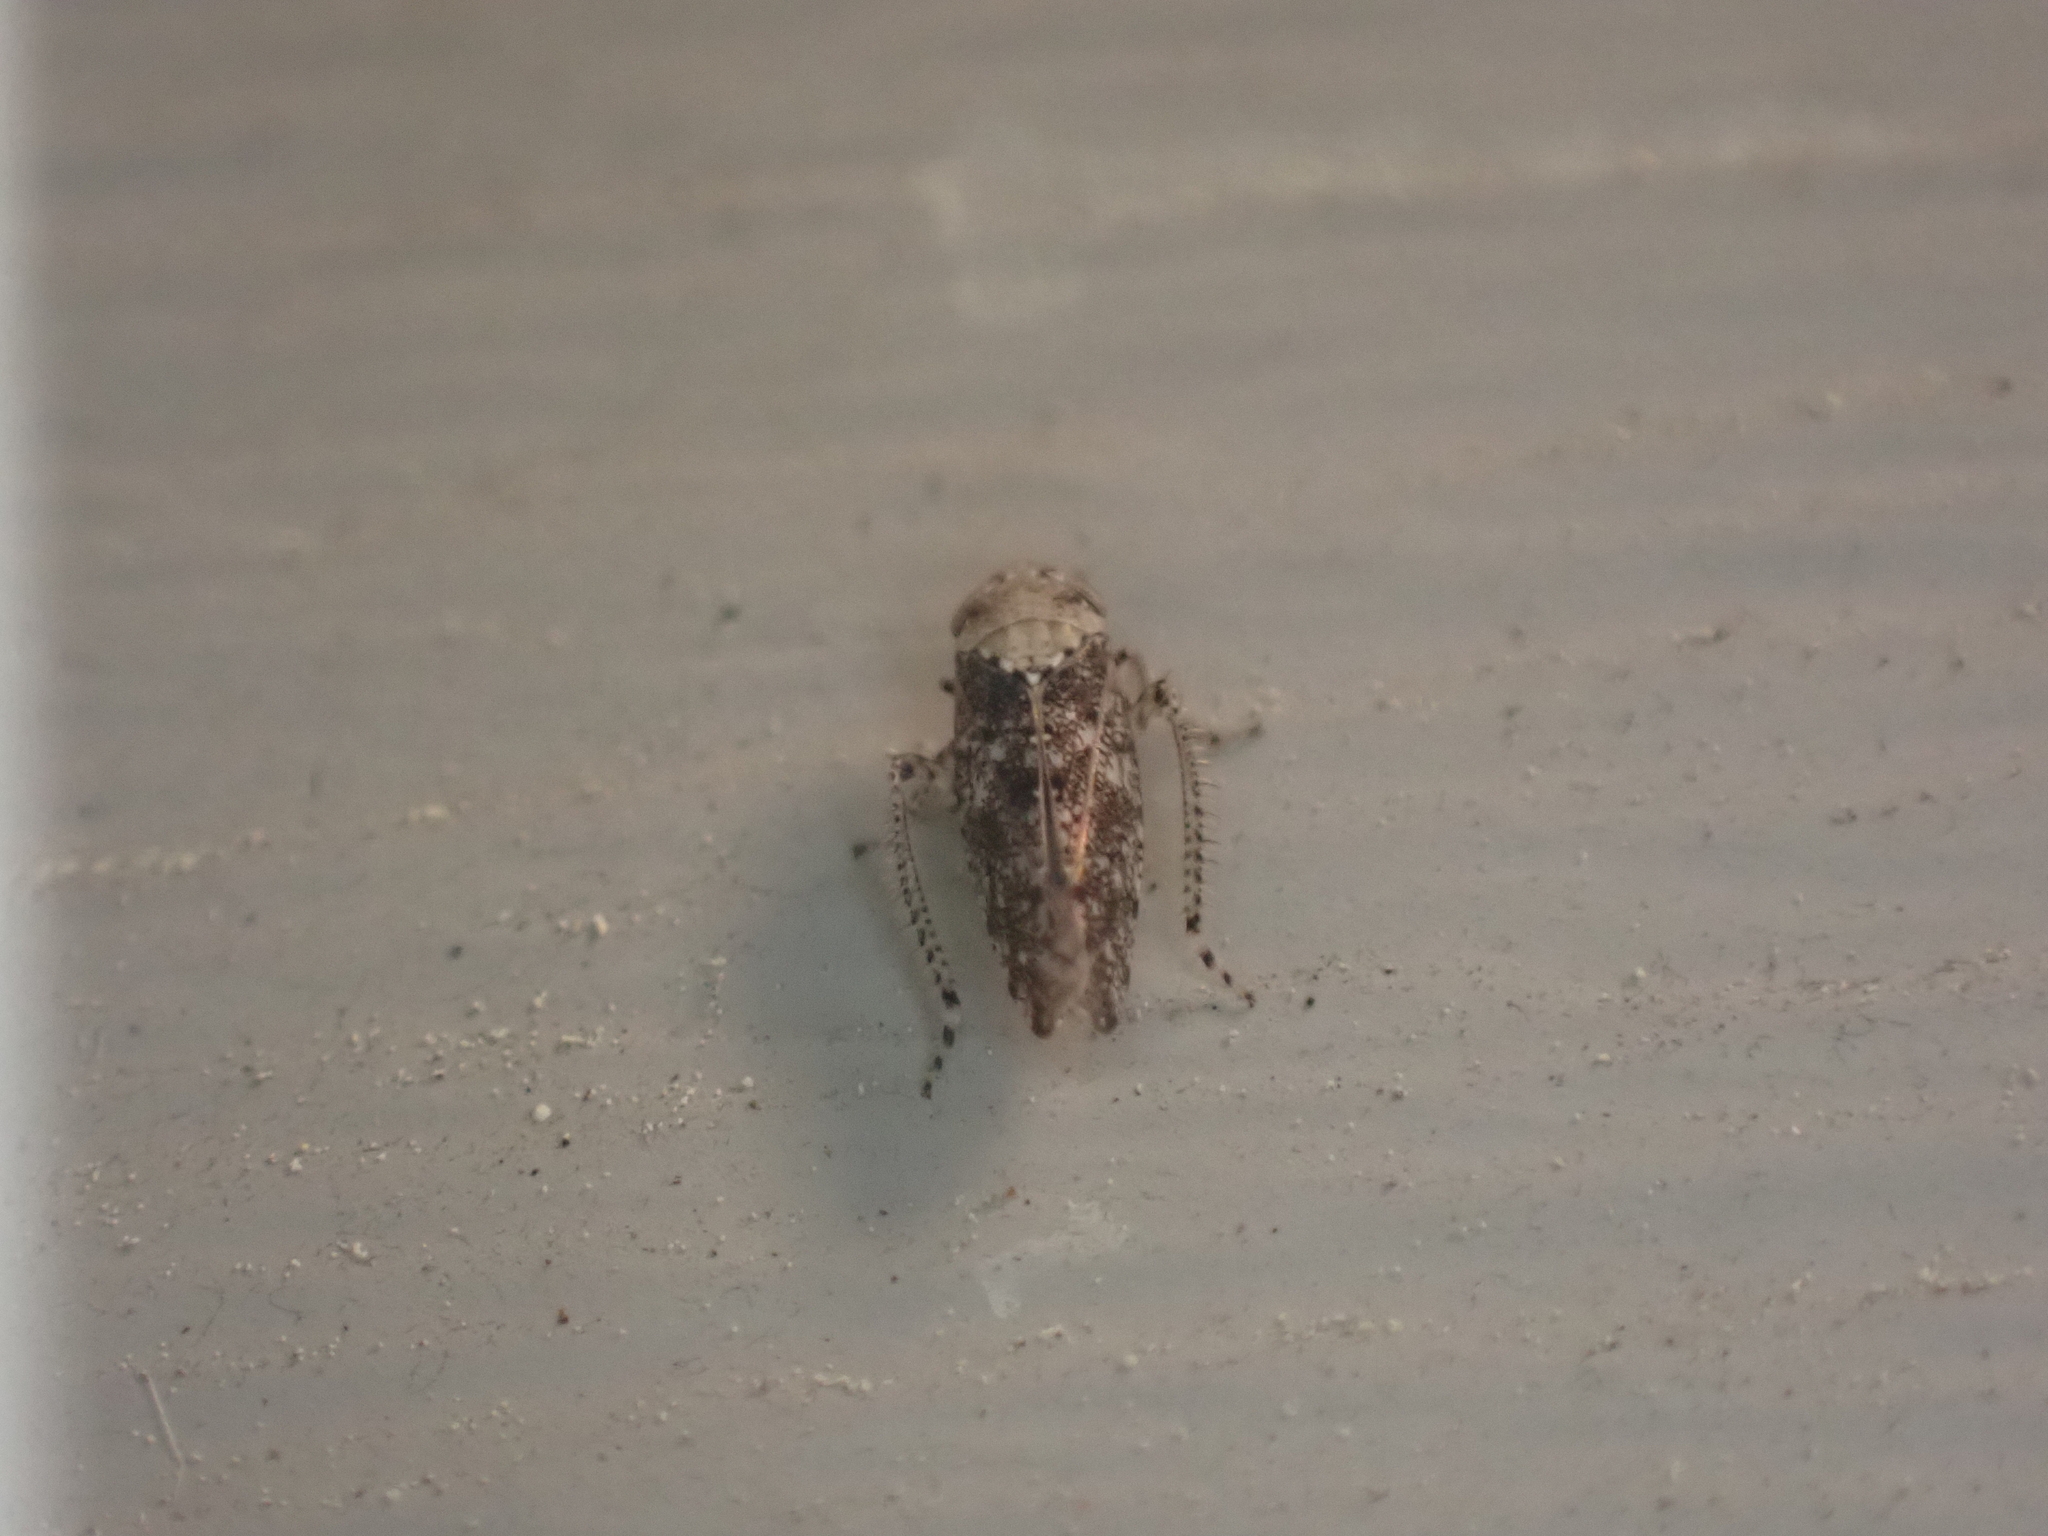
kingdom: Animalia
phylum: Arthropoda
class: Insecta
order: Hemiptera
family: Cicadellidae
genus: Paraphlepsius
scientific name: Paraphlepsius collitus
